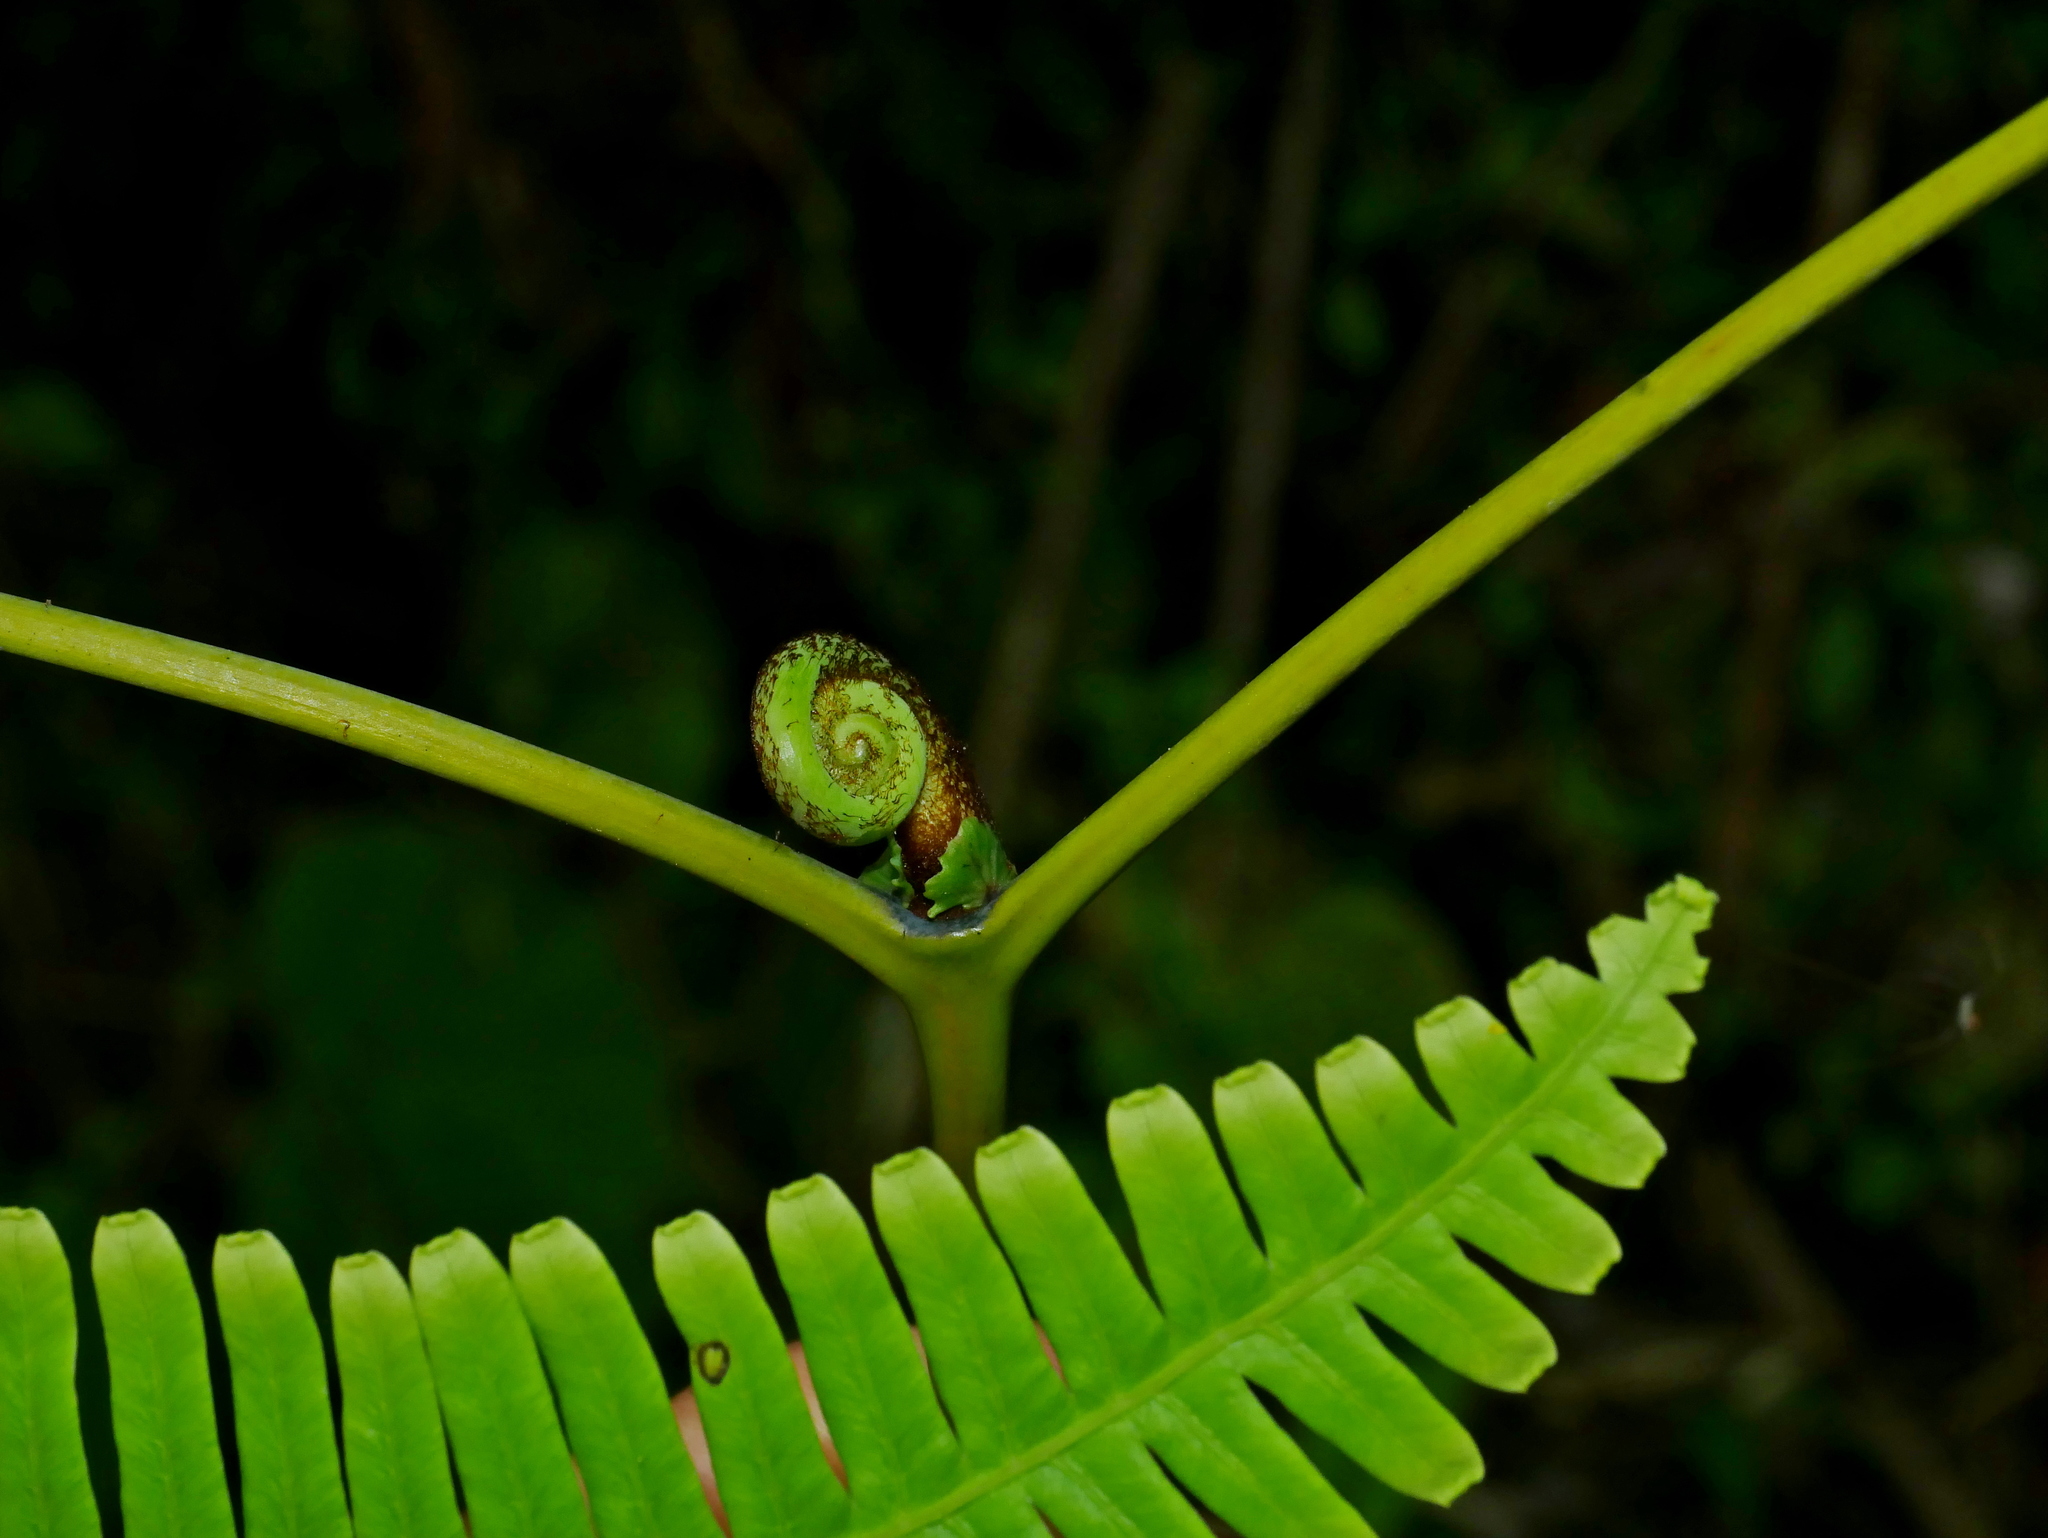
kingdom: Plantae
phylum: Tracheophyta
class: Polypodiopsida
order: Gleicheniales
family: Gleicheniaceae
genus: Dicranopteris
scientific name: Dicranopteris taiwanensis
